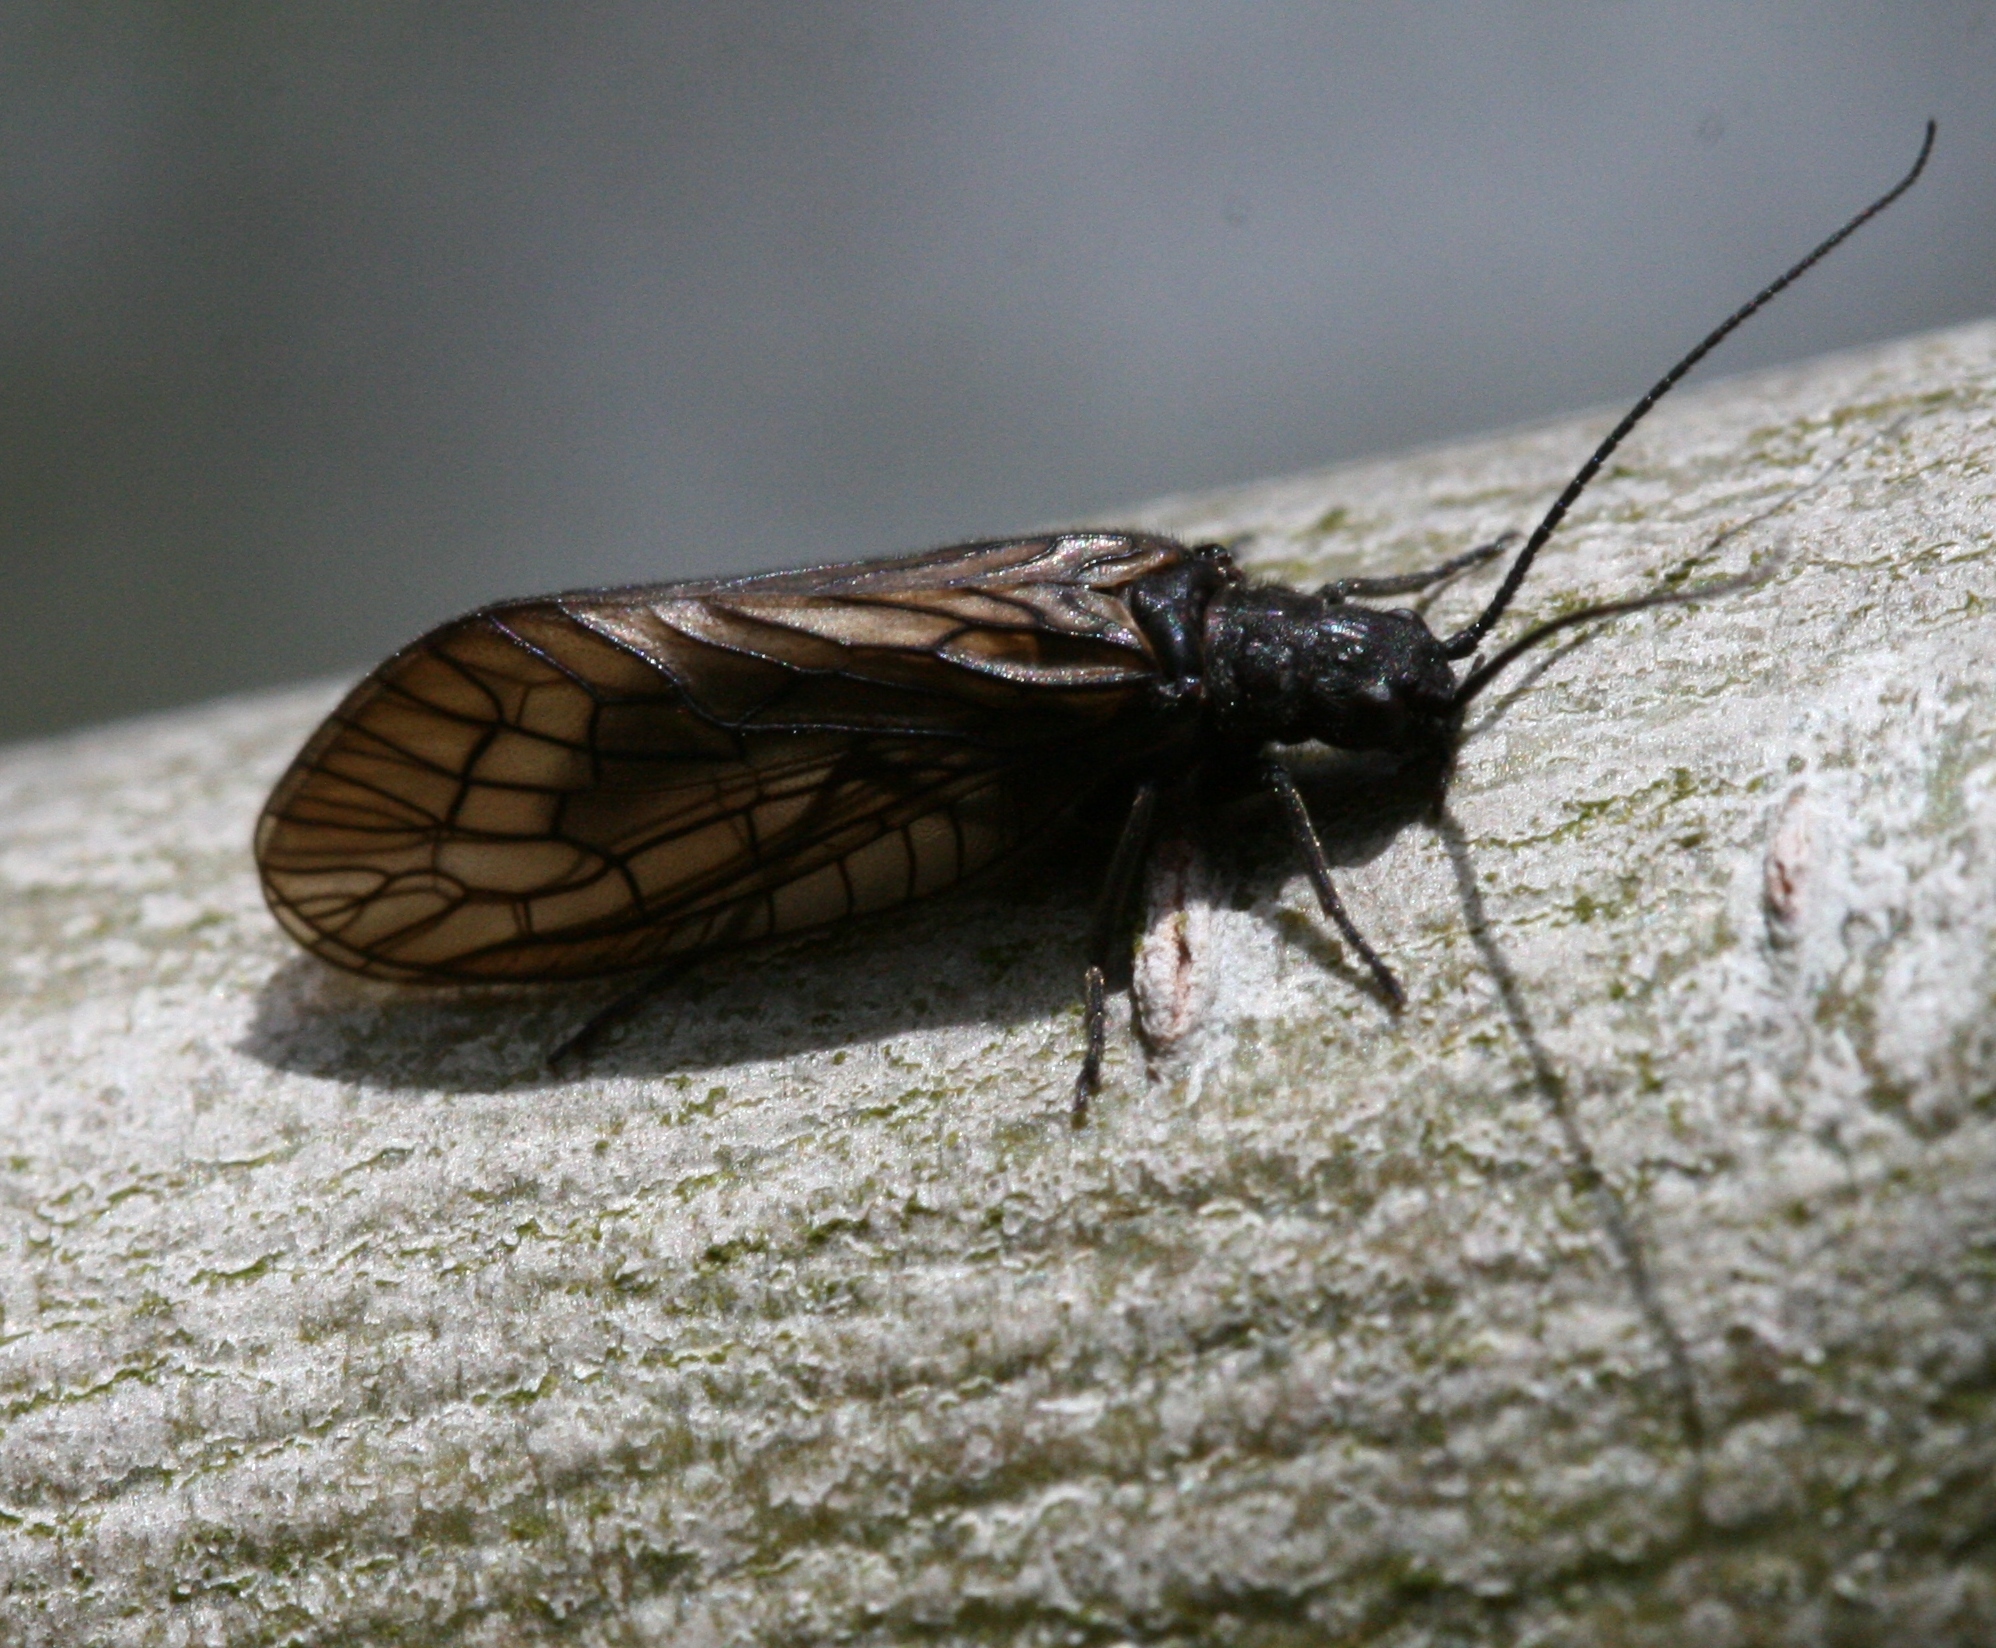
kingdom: Animalia
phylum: Arthropoda
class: Insecta
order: Megaloptera
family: Sialidae
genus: Sialis
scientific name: Sialis
